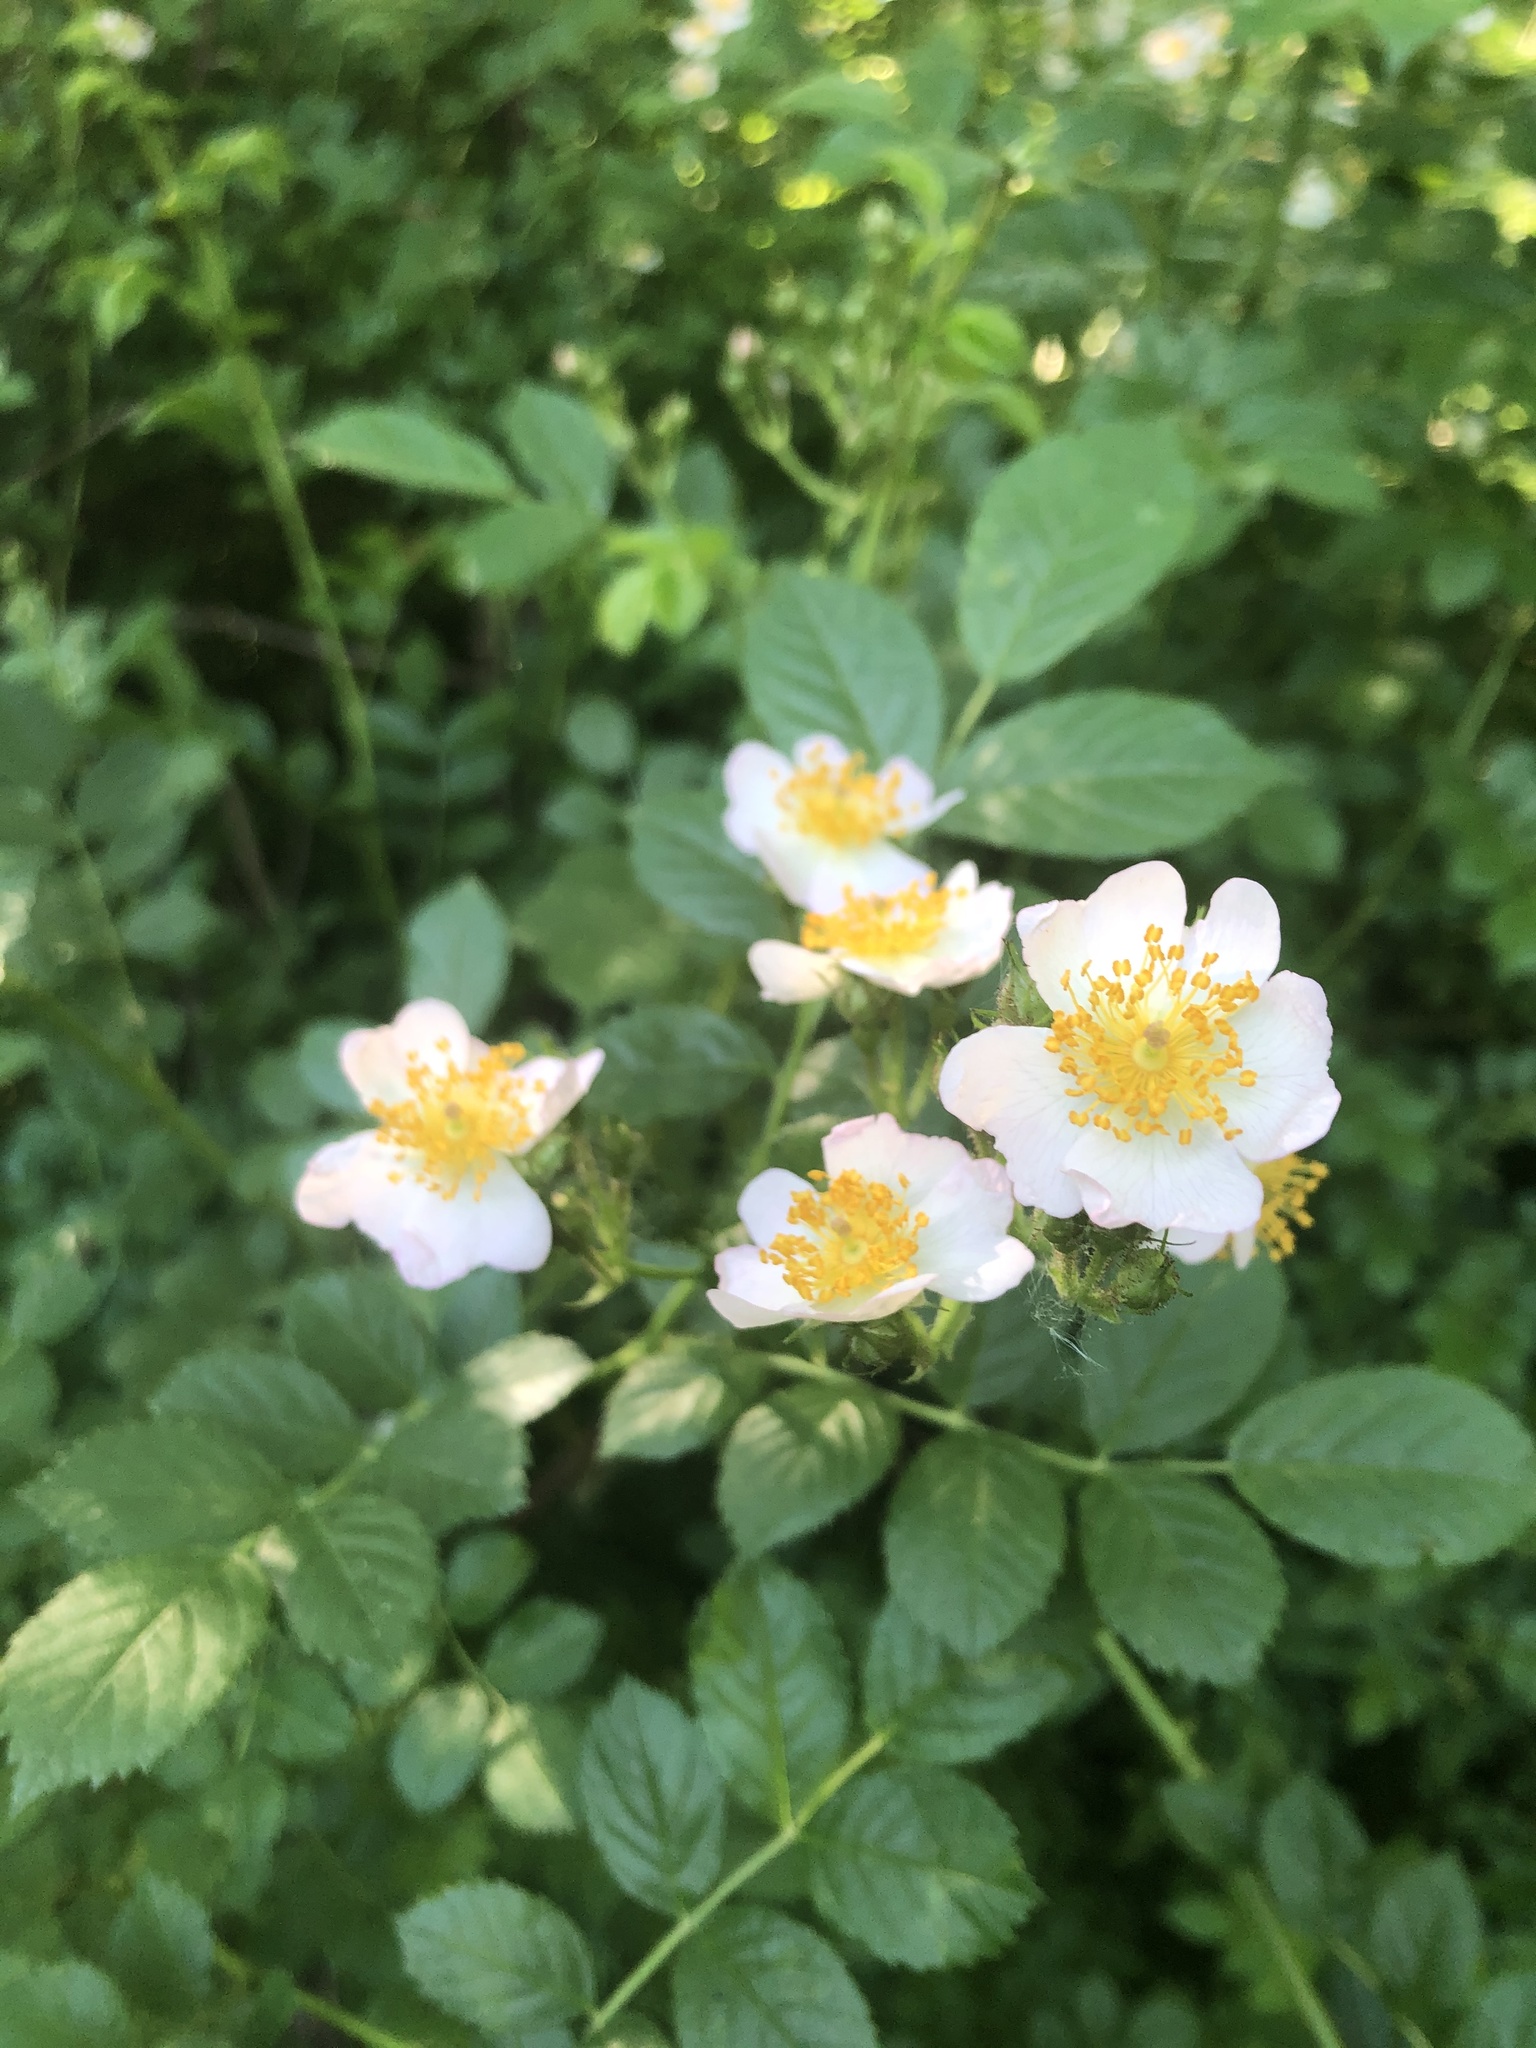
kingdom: Plantae
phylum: Tracheophyta
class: Magnoliopsida
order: Rosales
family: Rosaceae
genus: Rosa
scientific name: Rosa multiflora
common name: Multiflora rose
